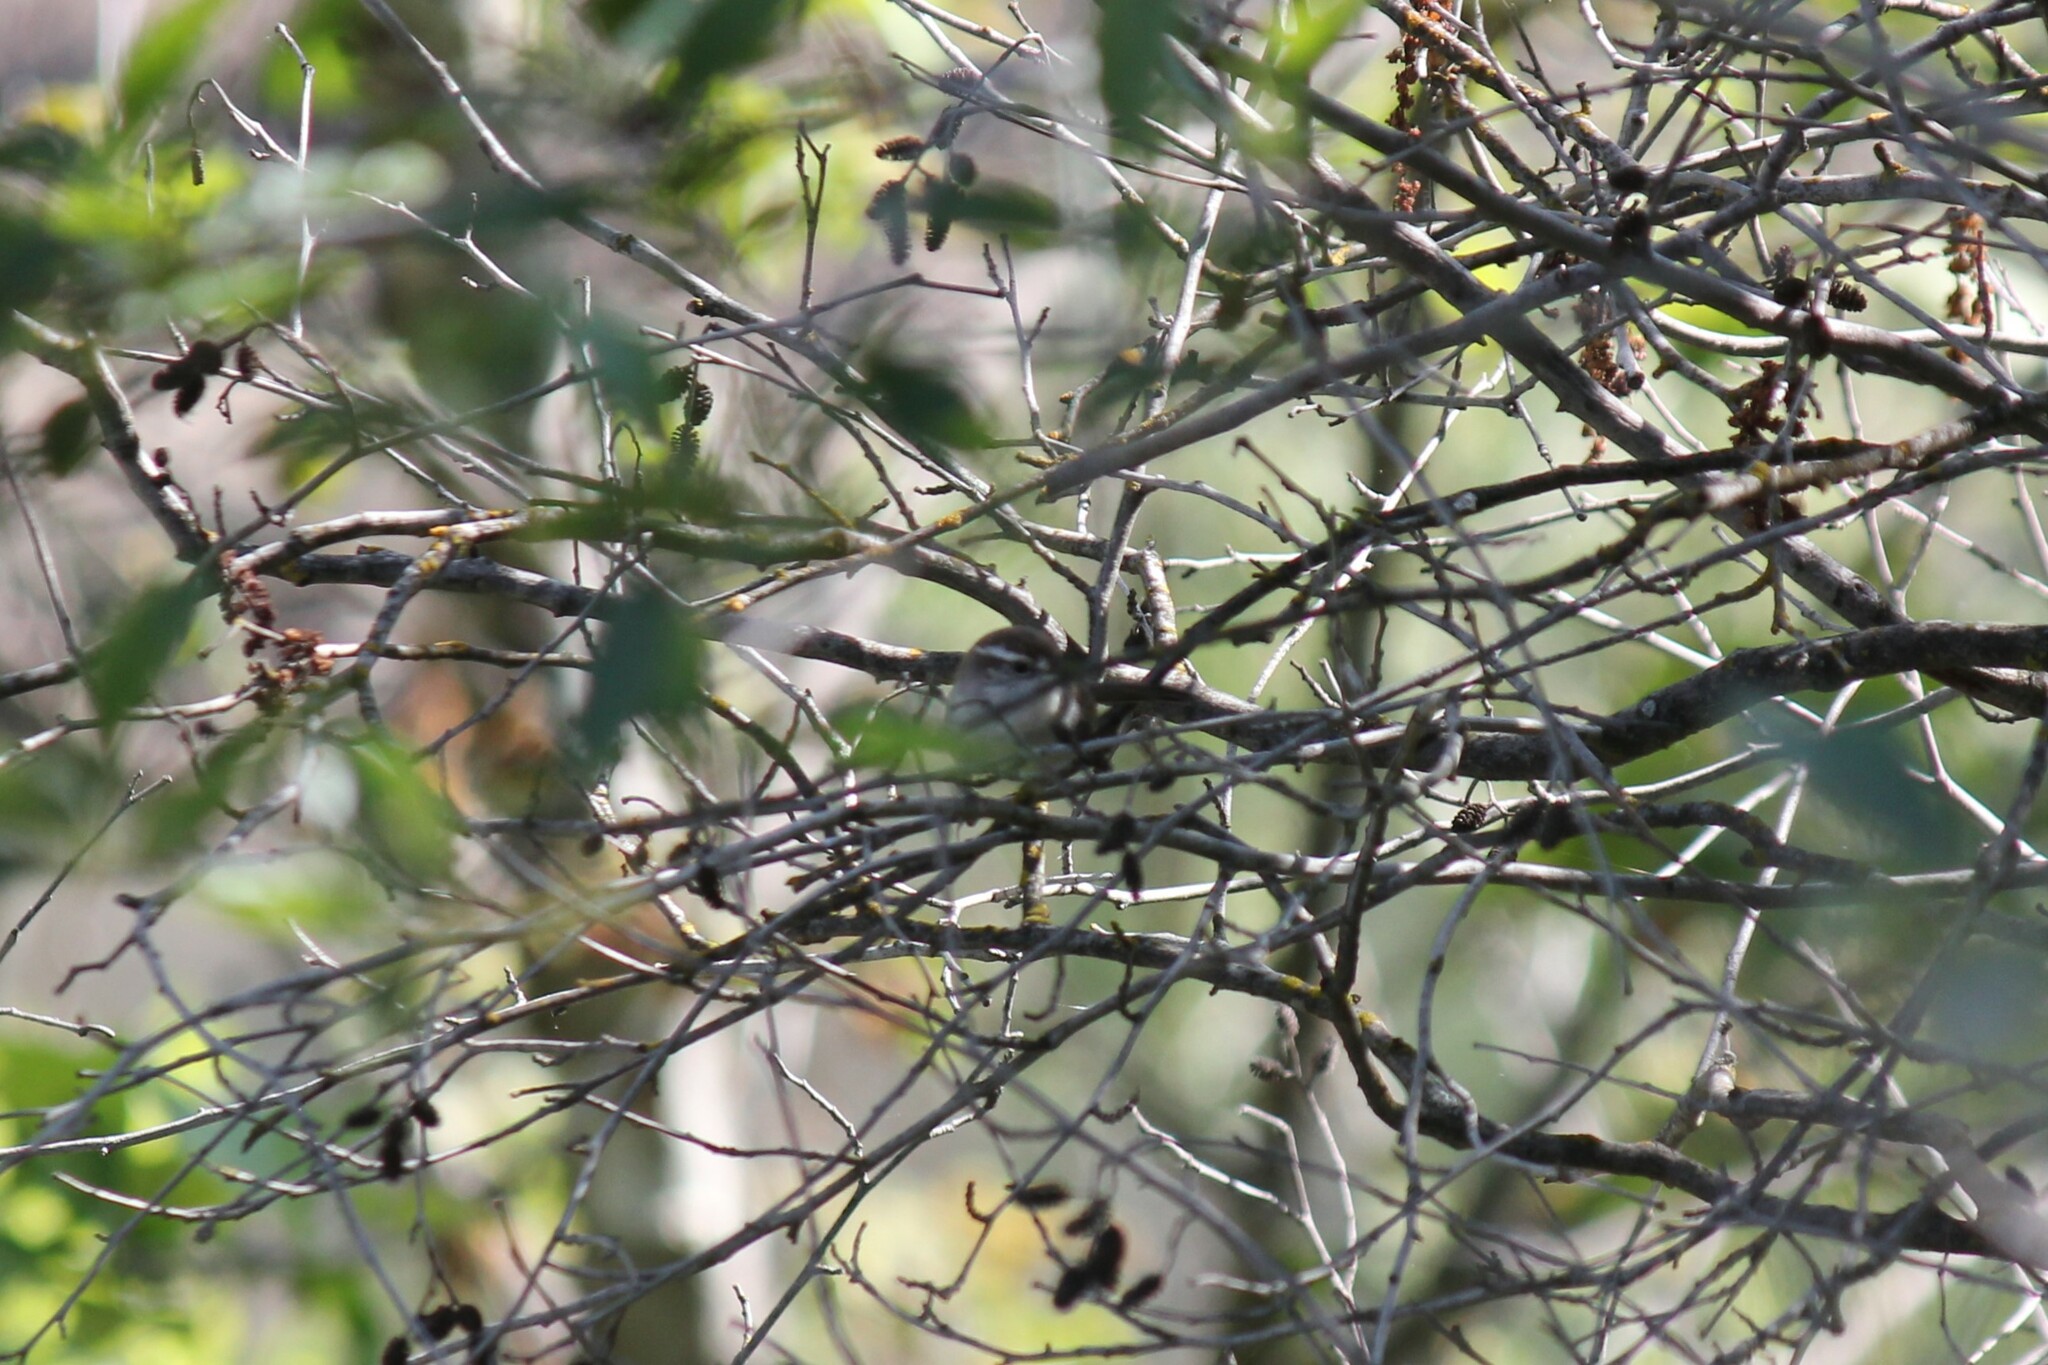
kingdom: Animalia
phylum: Chordata
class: Aves
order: Passeriformes
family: Troglodytidae
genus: Thryomanes
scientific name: Thryomanes bewickii
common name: Bewick's wren
